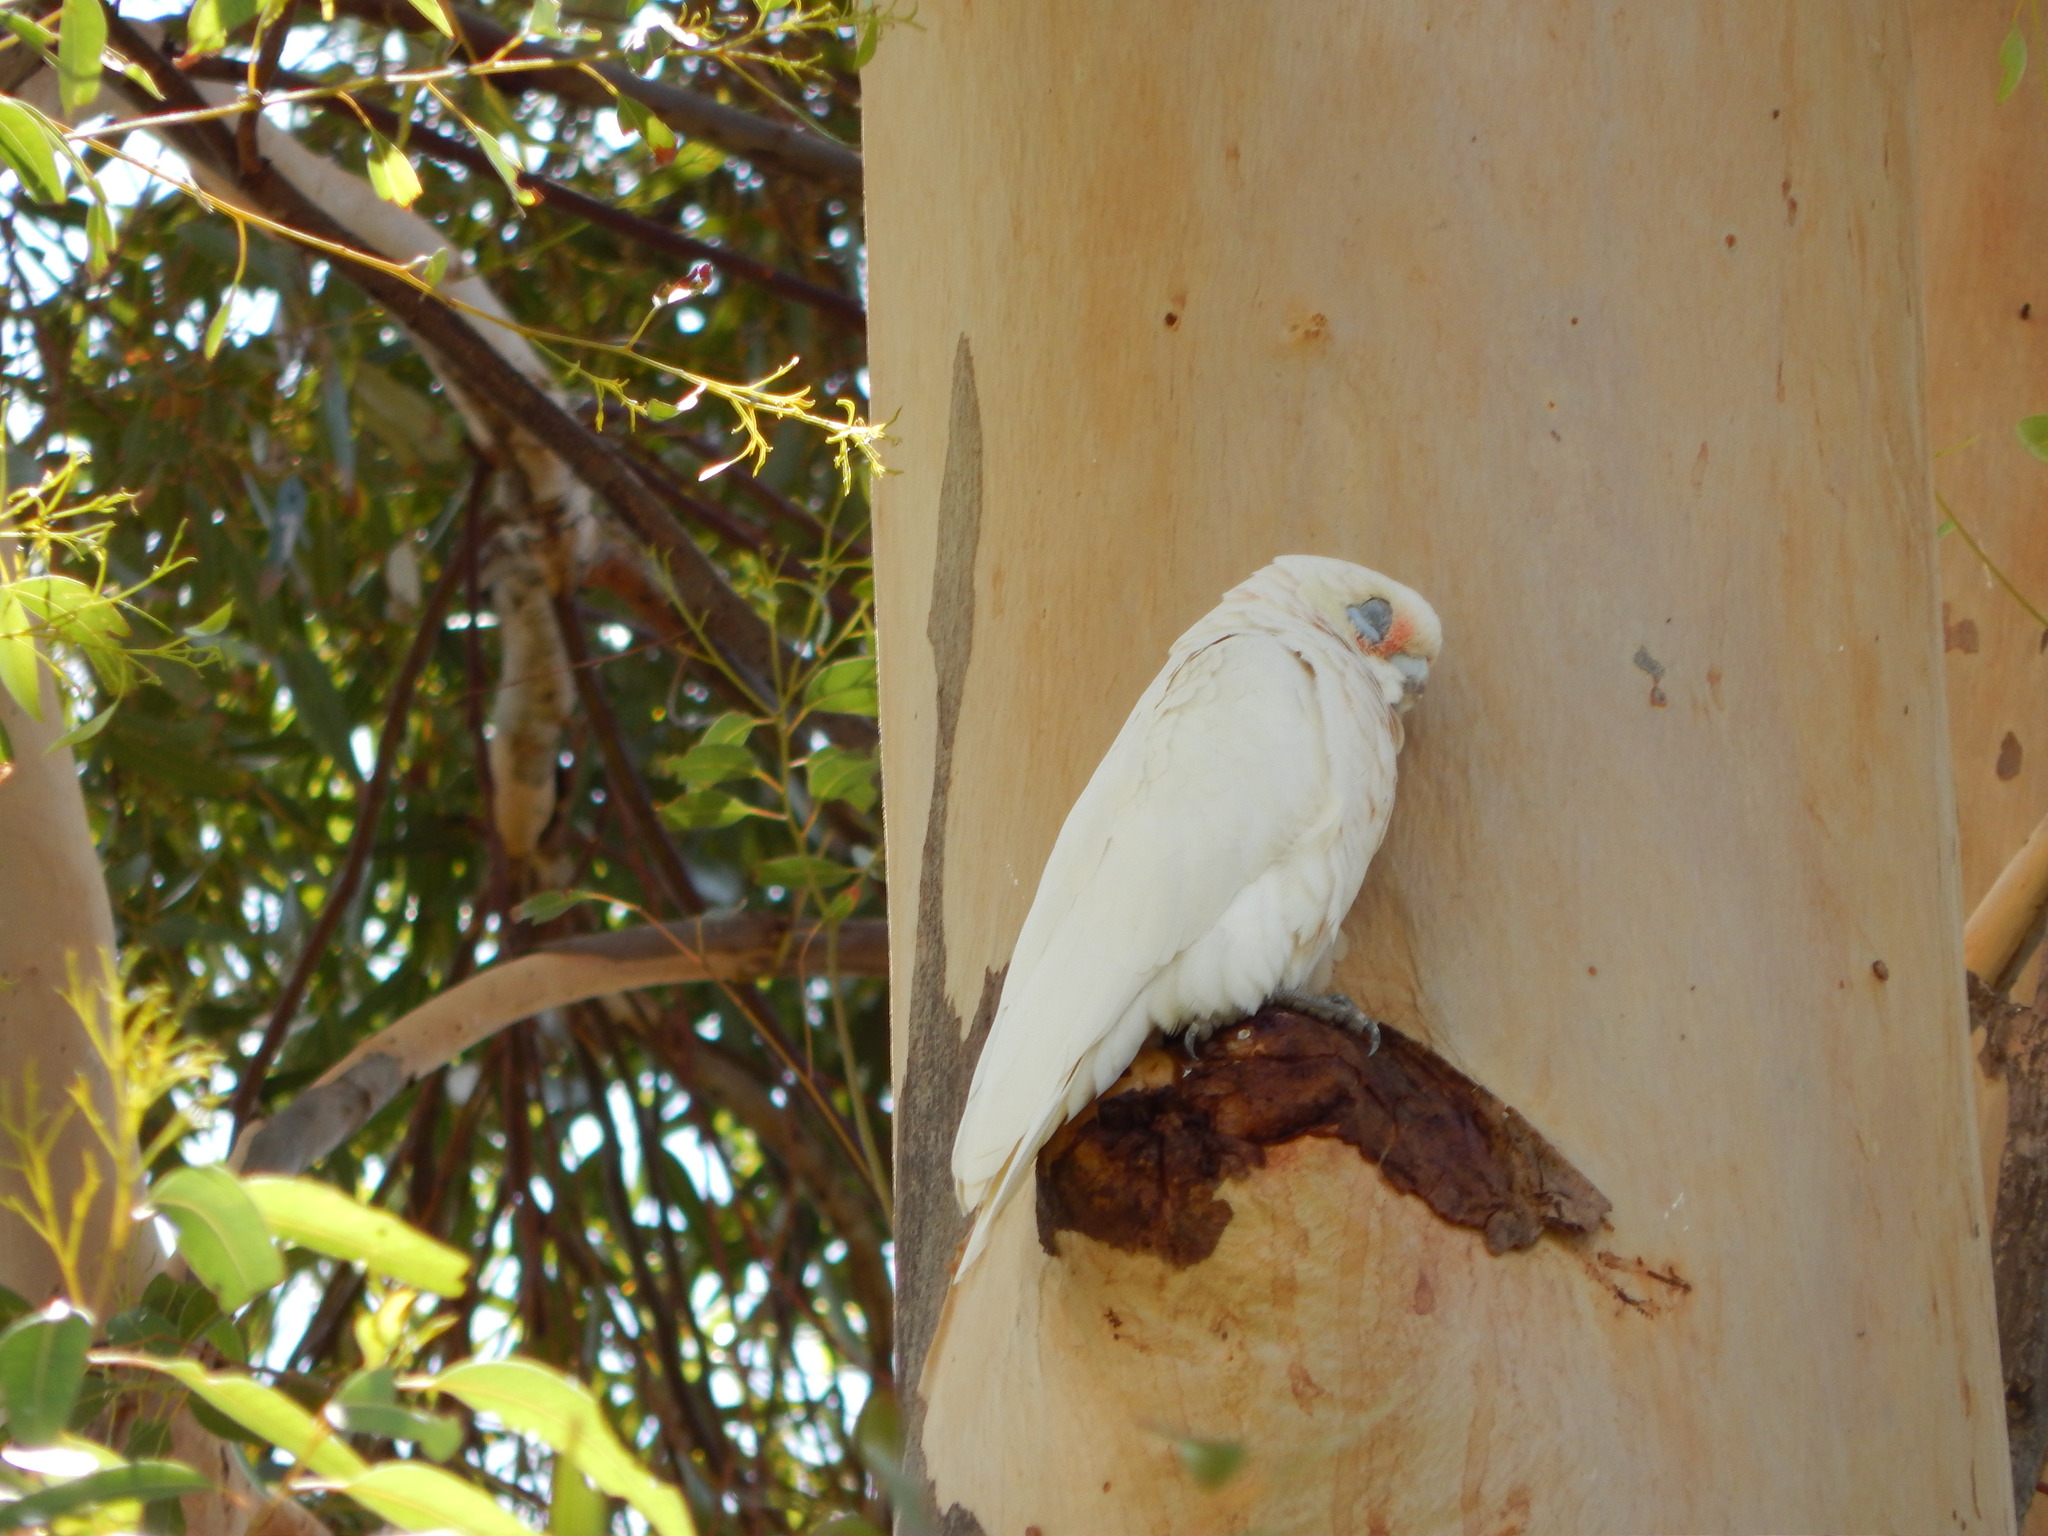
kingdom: Animalia
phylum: Chordata
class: Aves
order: Psittaciformes
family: Psittacidae
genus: Cacatua
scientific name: Cacatua sanguinea
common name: Little corella
